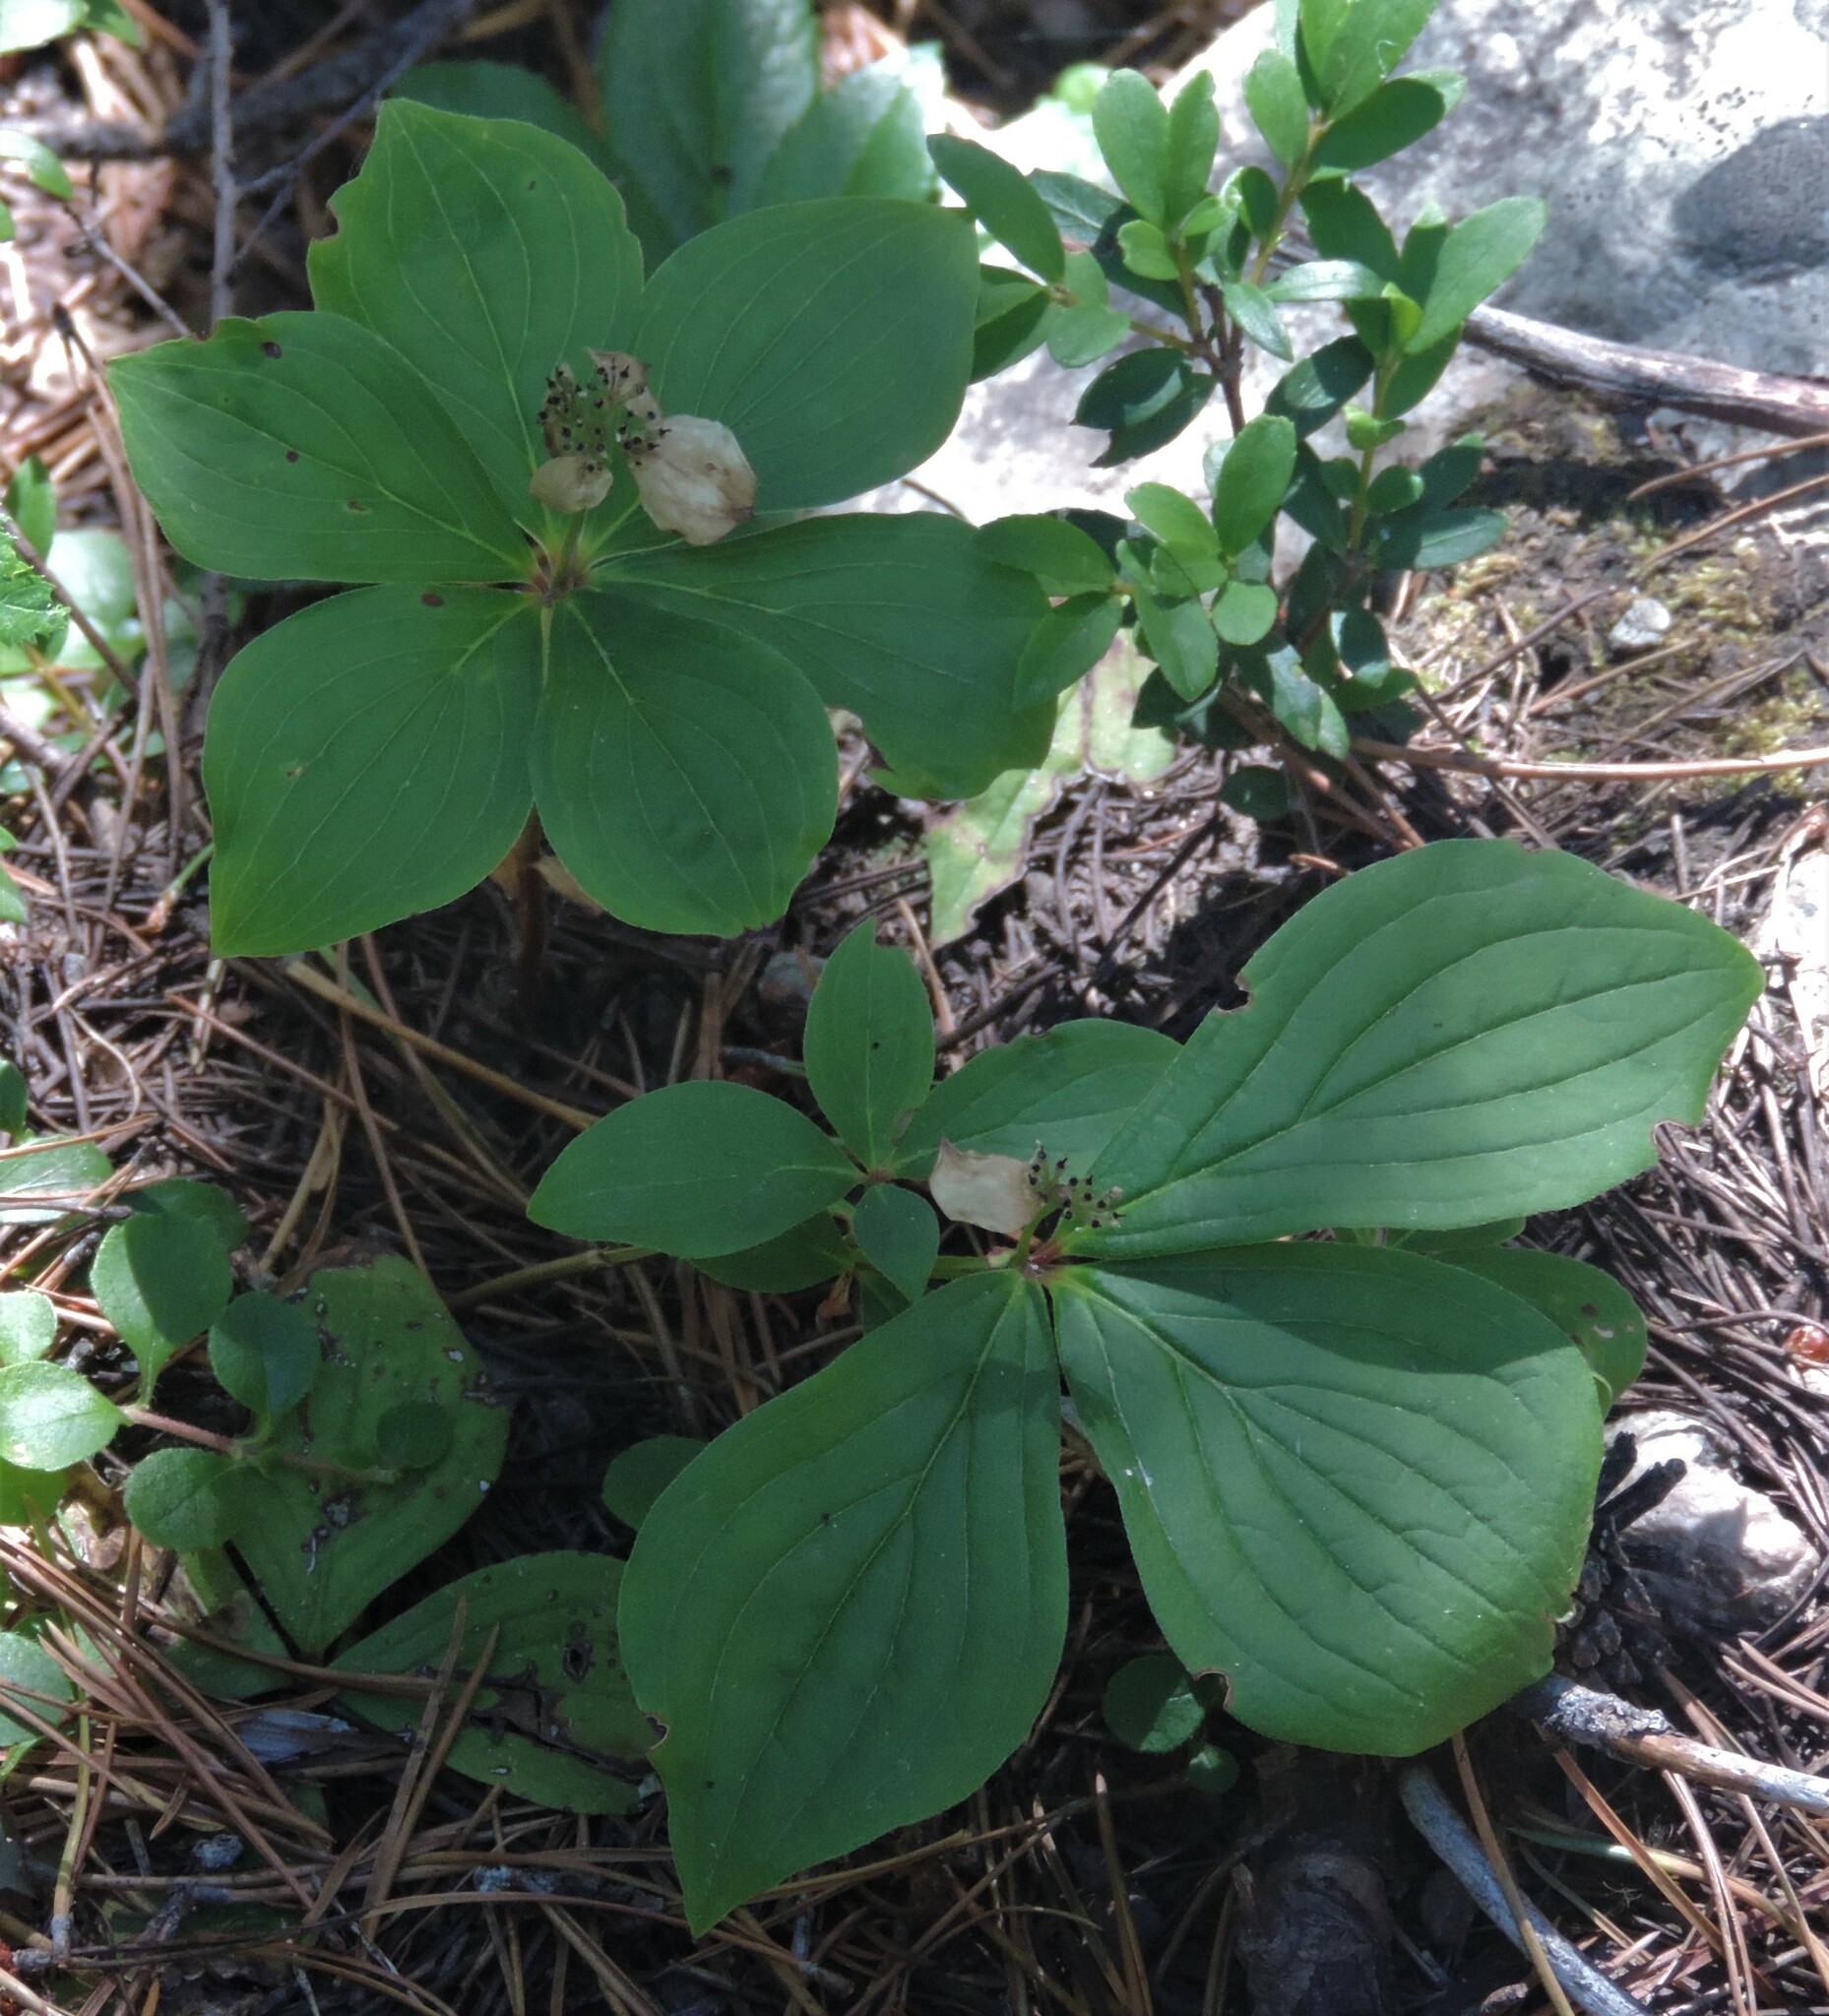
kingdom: Plantae
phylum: Tracheophyta
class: Magnoliopsida
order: Cornales
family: Cornaceae
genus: Cornus
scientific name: Cornus canadensis
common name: Creeping dogwood
